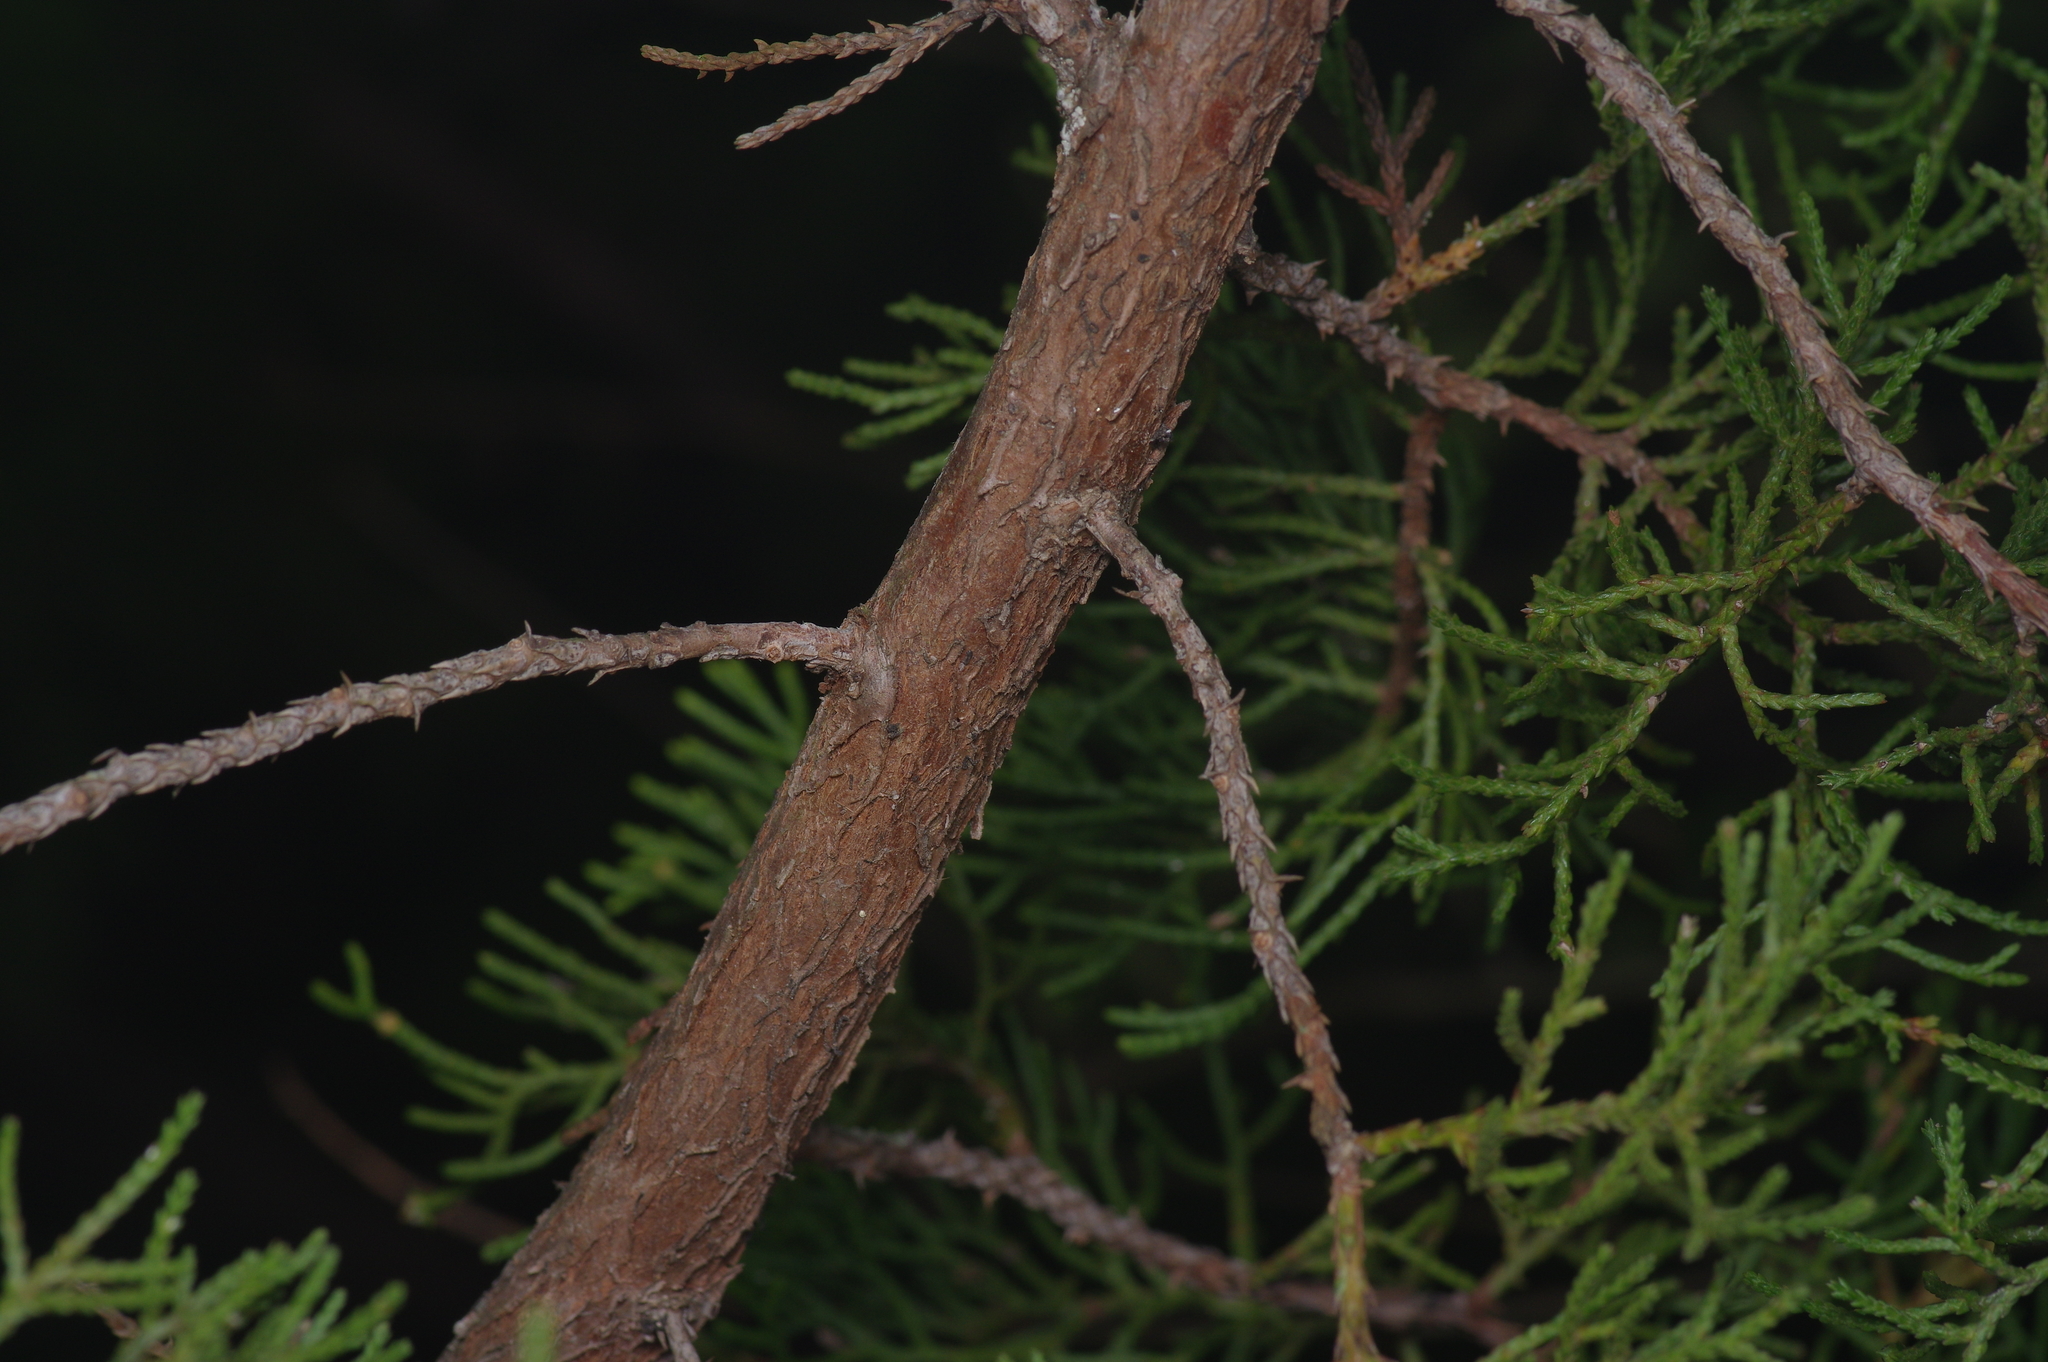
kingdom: Plantae
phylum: Tracheophyta
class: Pinopsida
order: Pinales
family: Cupressaceae
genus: Juniperus
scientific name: Juniperus virginiana
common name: Red juniper
